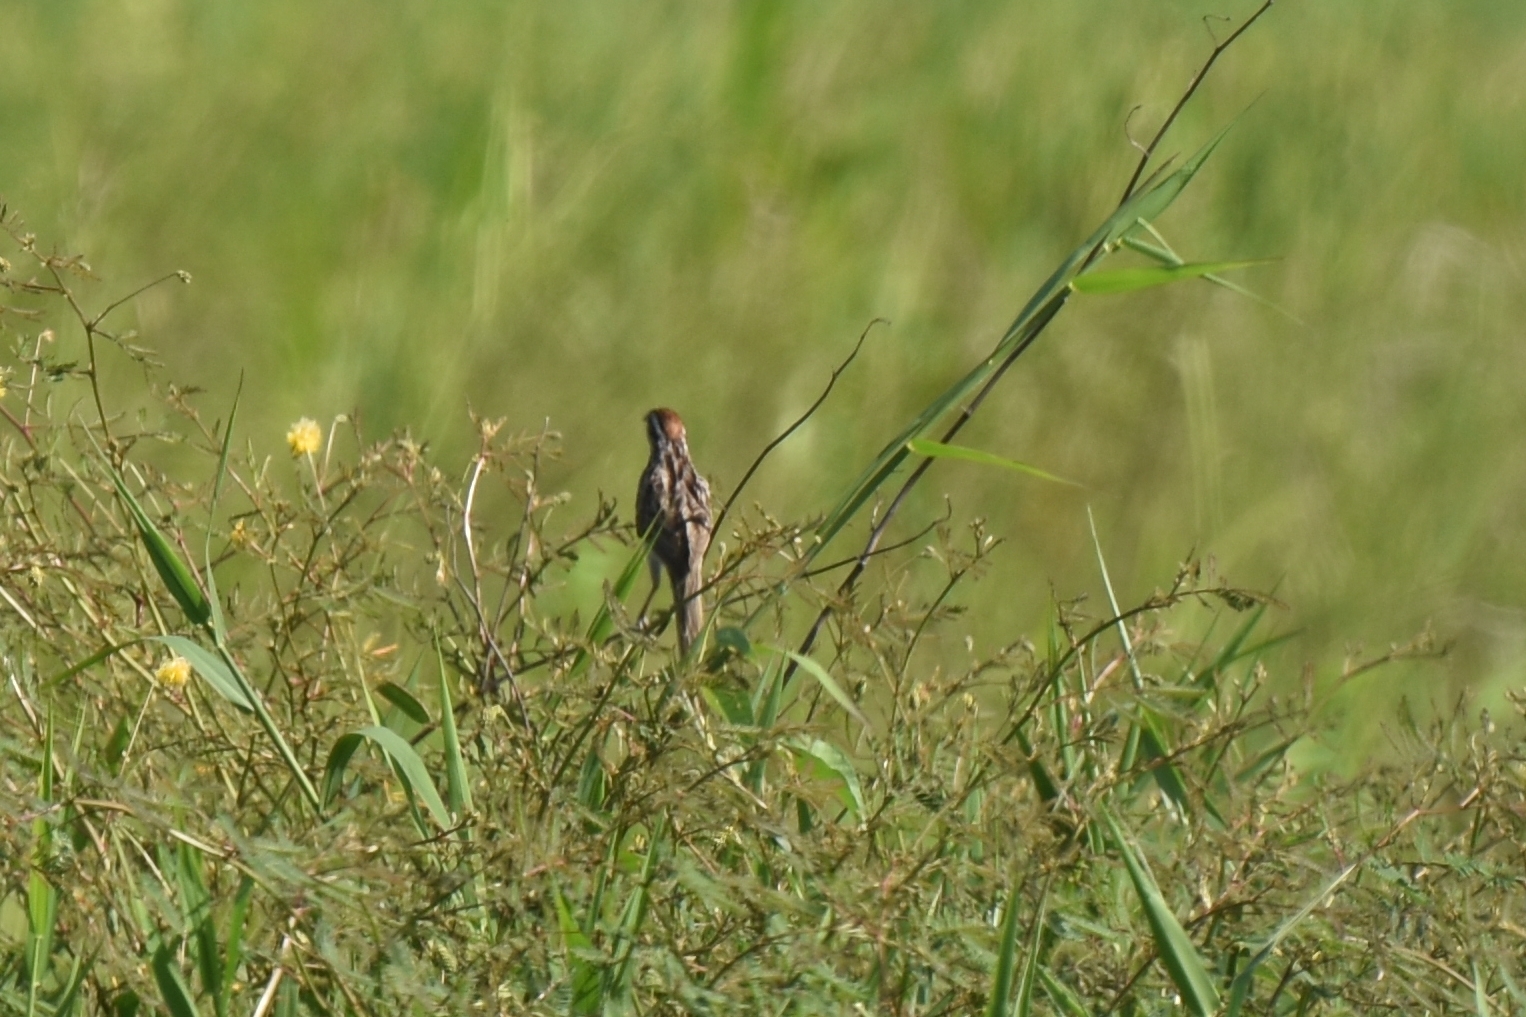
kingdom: Animalia
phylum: Chordata
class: Aves
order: Cuculiformes
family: Cuculidae
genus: Tapera
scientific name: Tapera naevia
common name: Striped cuckoo
